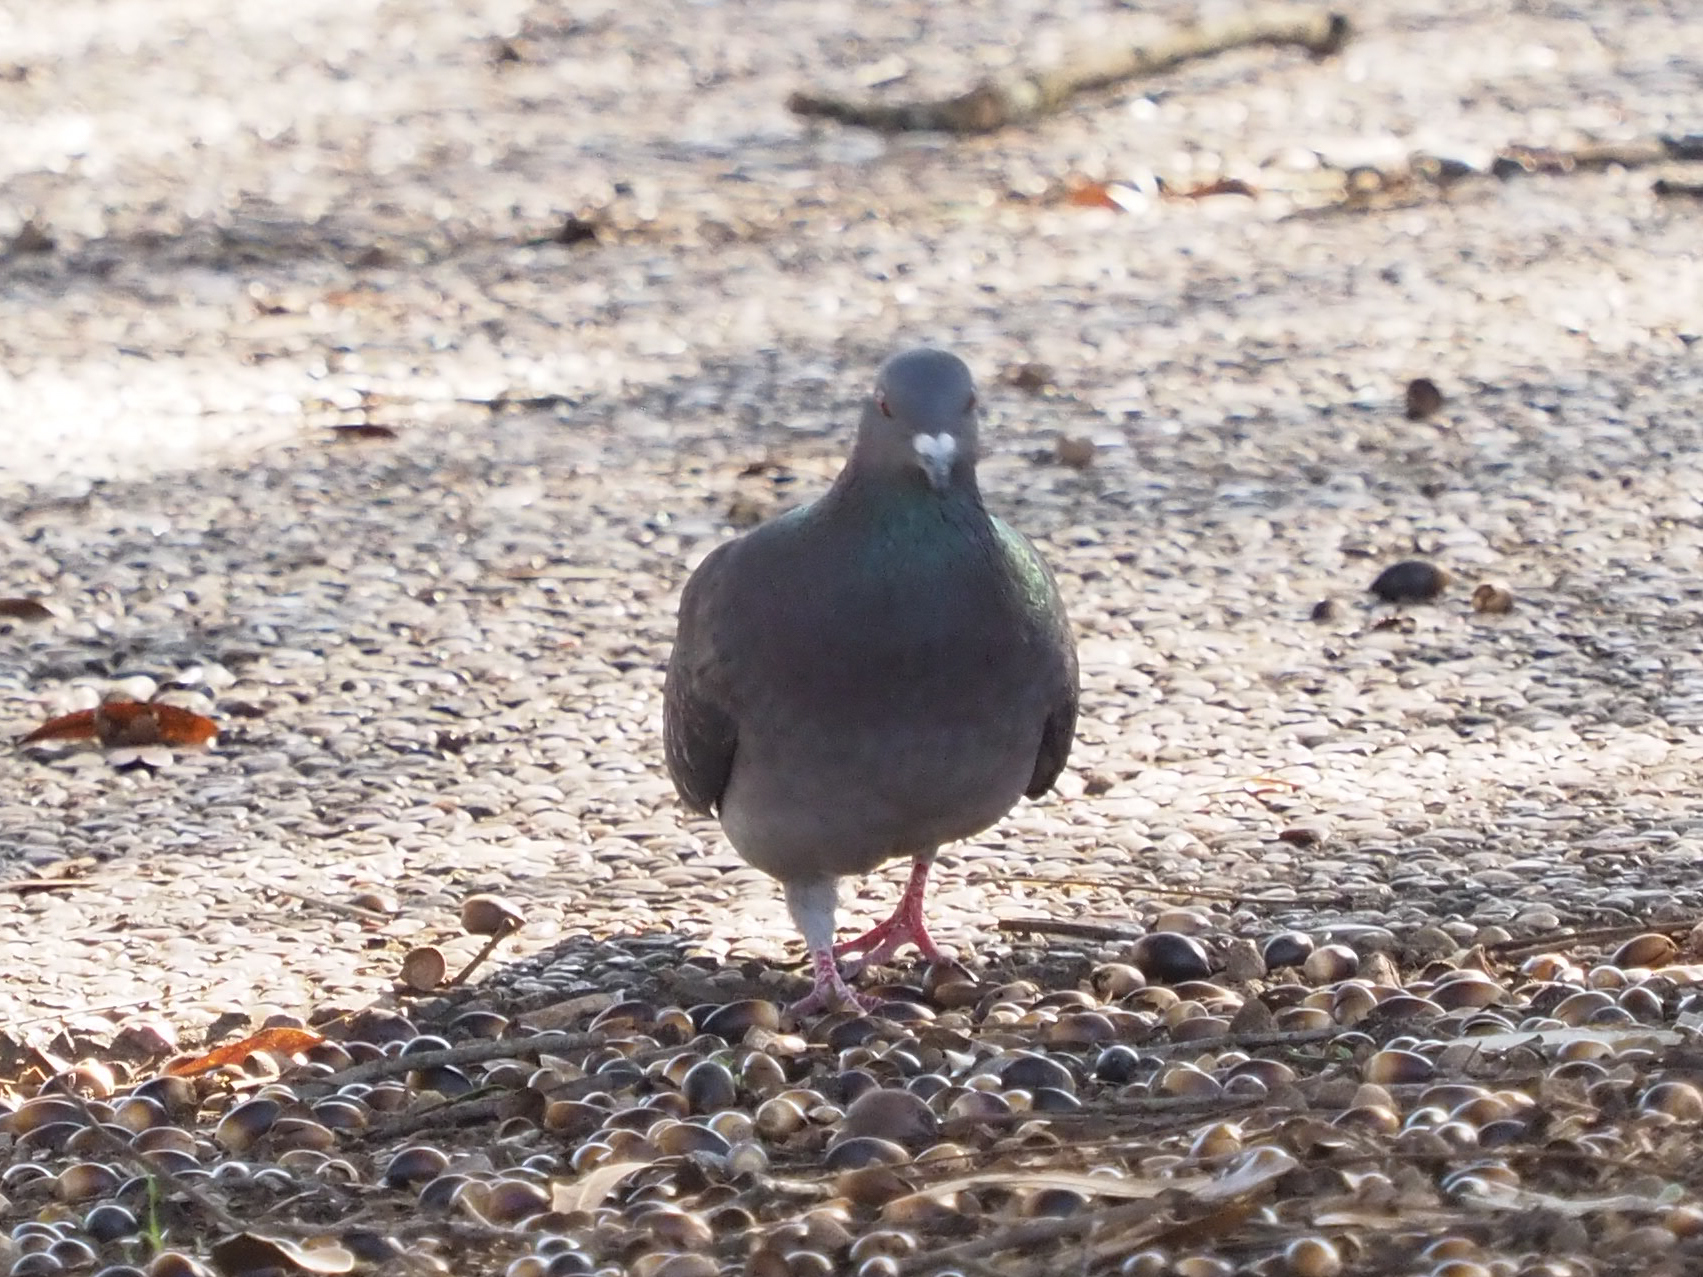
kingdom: Animalia
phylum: Chordata
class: Aves
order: Columbiformes
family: Columbidae
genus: Columba
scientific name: Columba livia
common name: Rock pigeon
